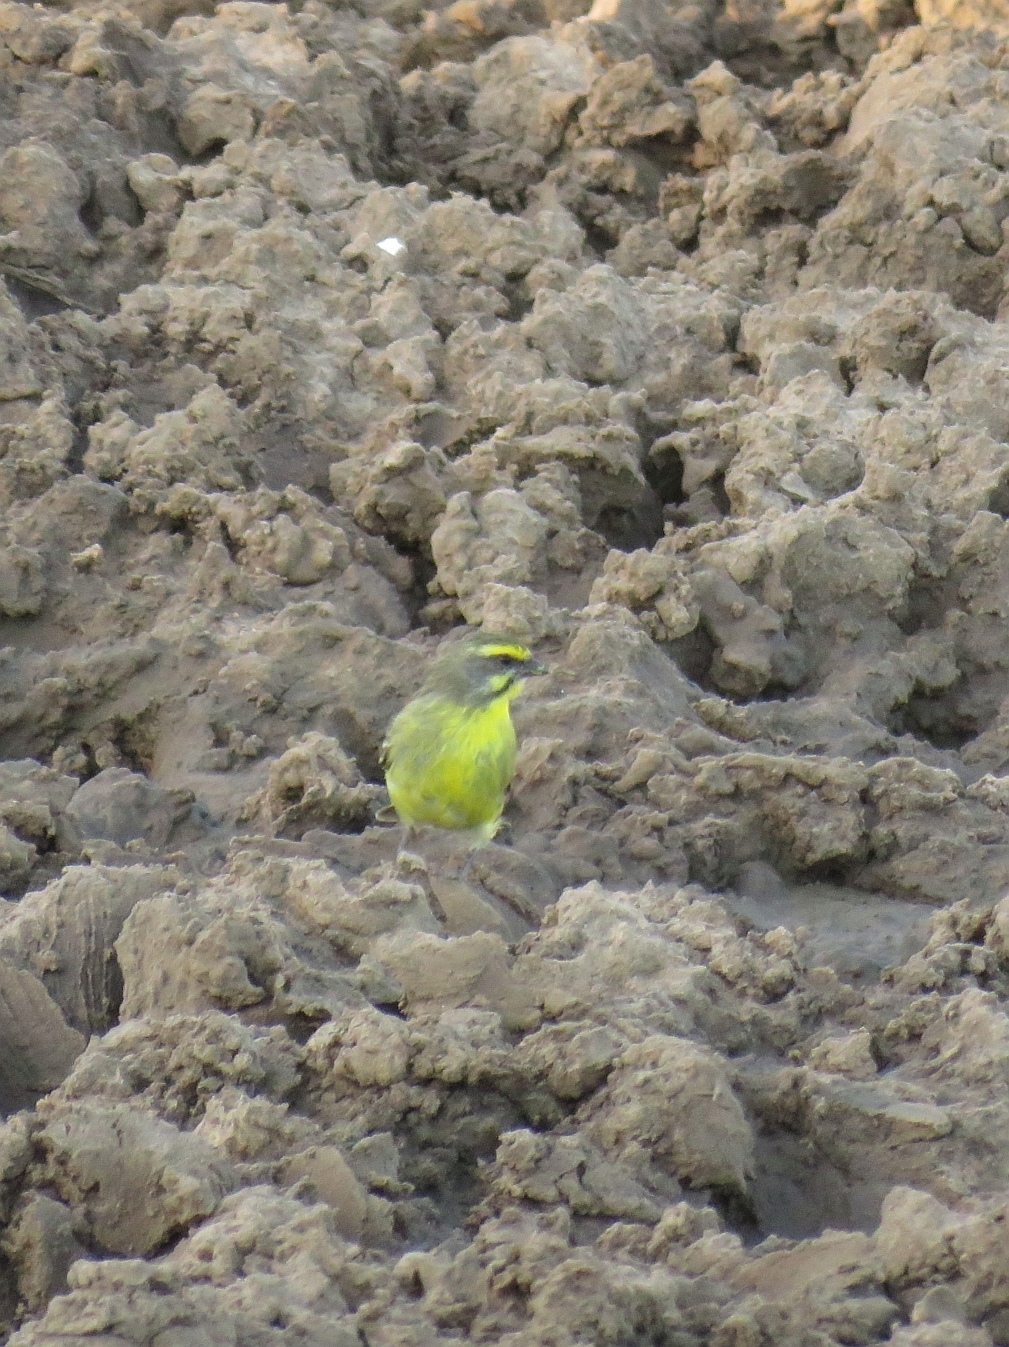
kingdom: Animalia
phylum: Chordata
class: Aves
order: Passeriformes
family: Fringillidae
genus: Crithagra
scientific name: Crithagra mozambica
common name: Yellow-fronted canary
